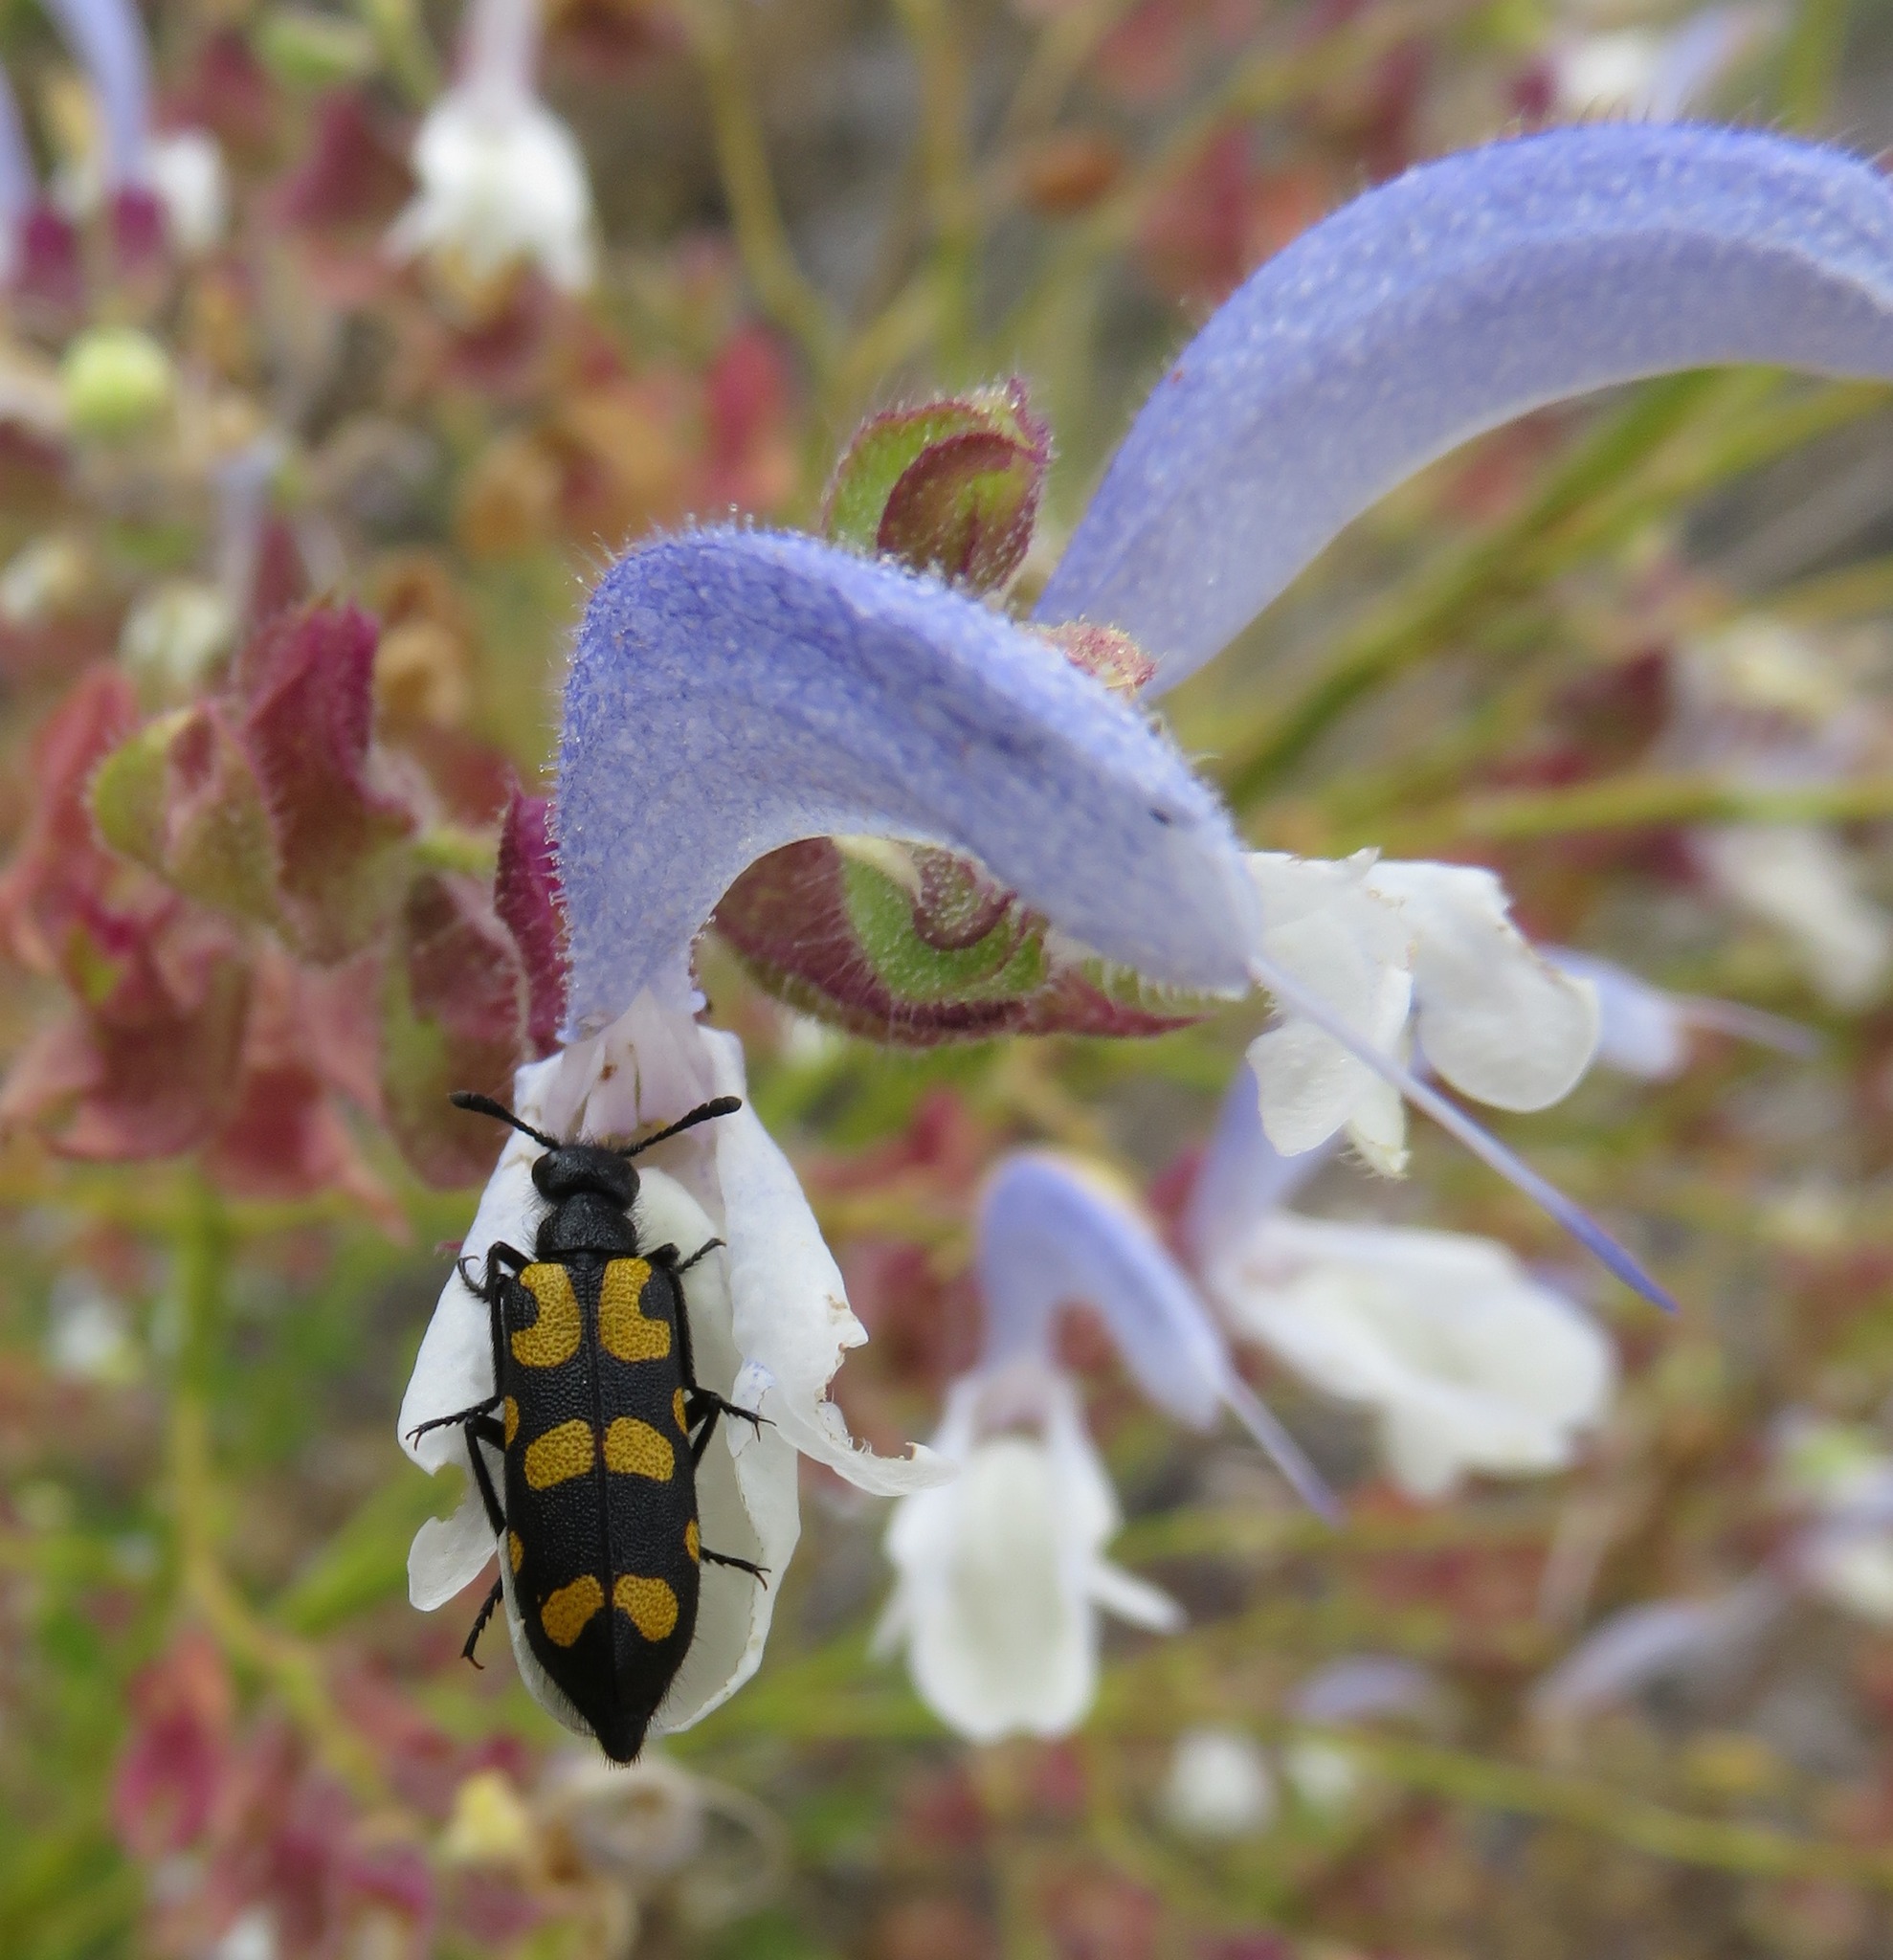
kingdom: Plantae
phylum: Tracheophyta
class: Magnoliopsida
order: Lamiales
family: Lamiaceae
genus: Salvia
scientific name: Salvia chamelaeagnea
